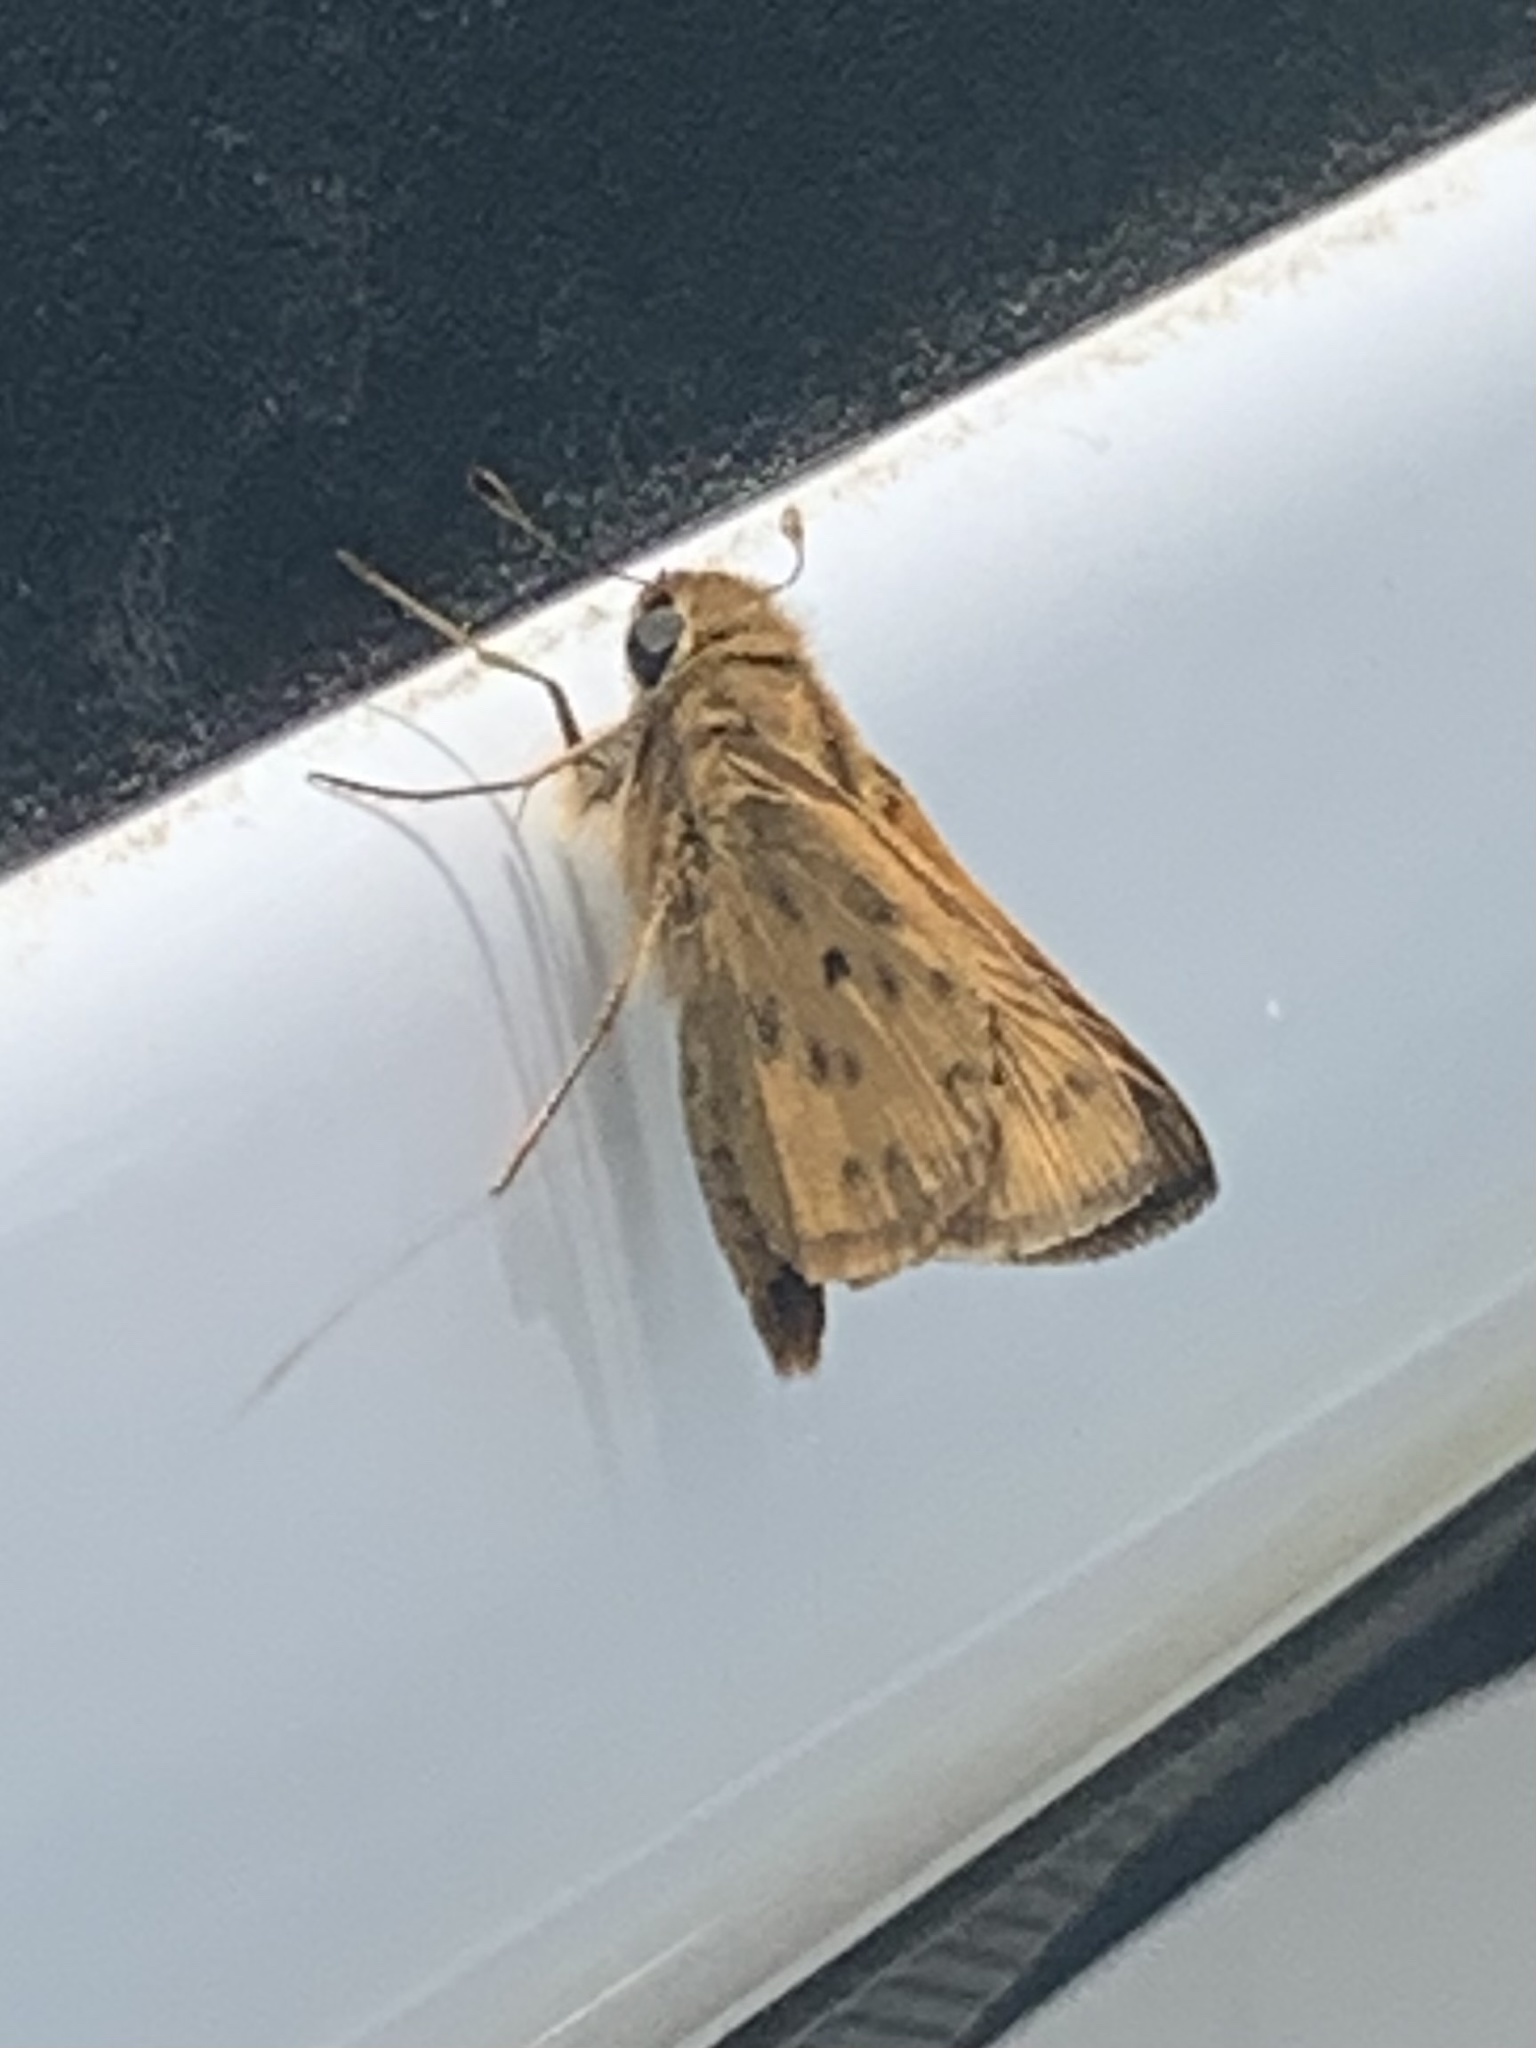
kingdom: Animalia
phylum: Arthropoda
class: Insecta
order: Lepidoptera
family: Hesperiidae
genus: Hylephila
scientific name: Hylephila phyleus
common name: Fiery skipper
